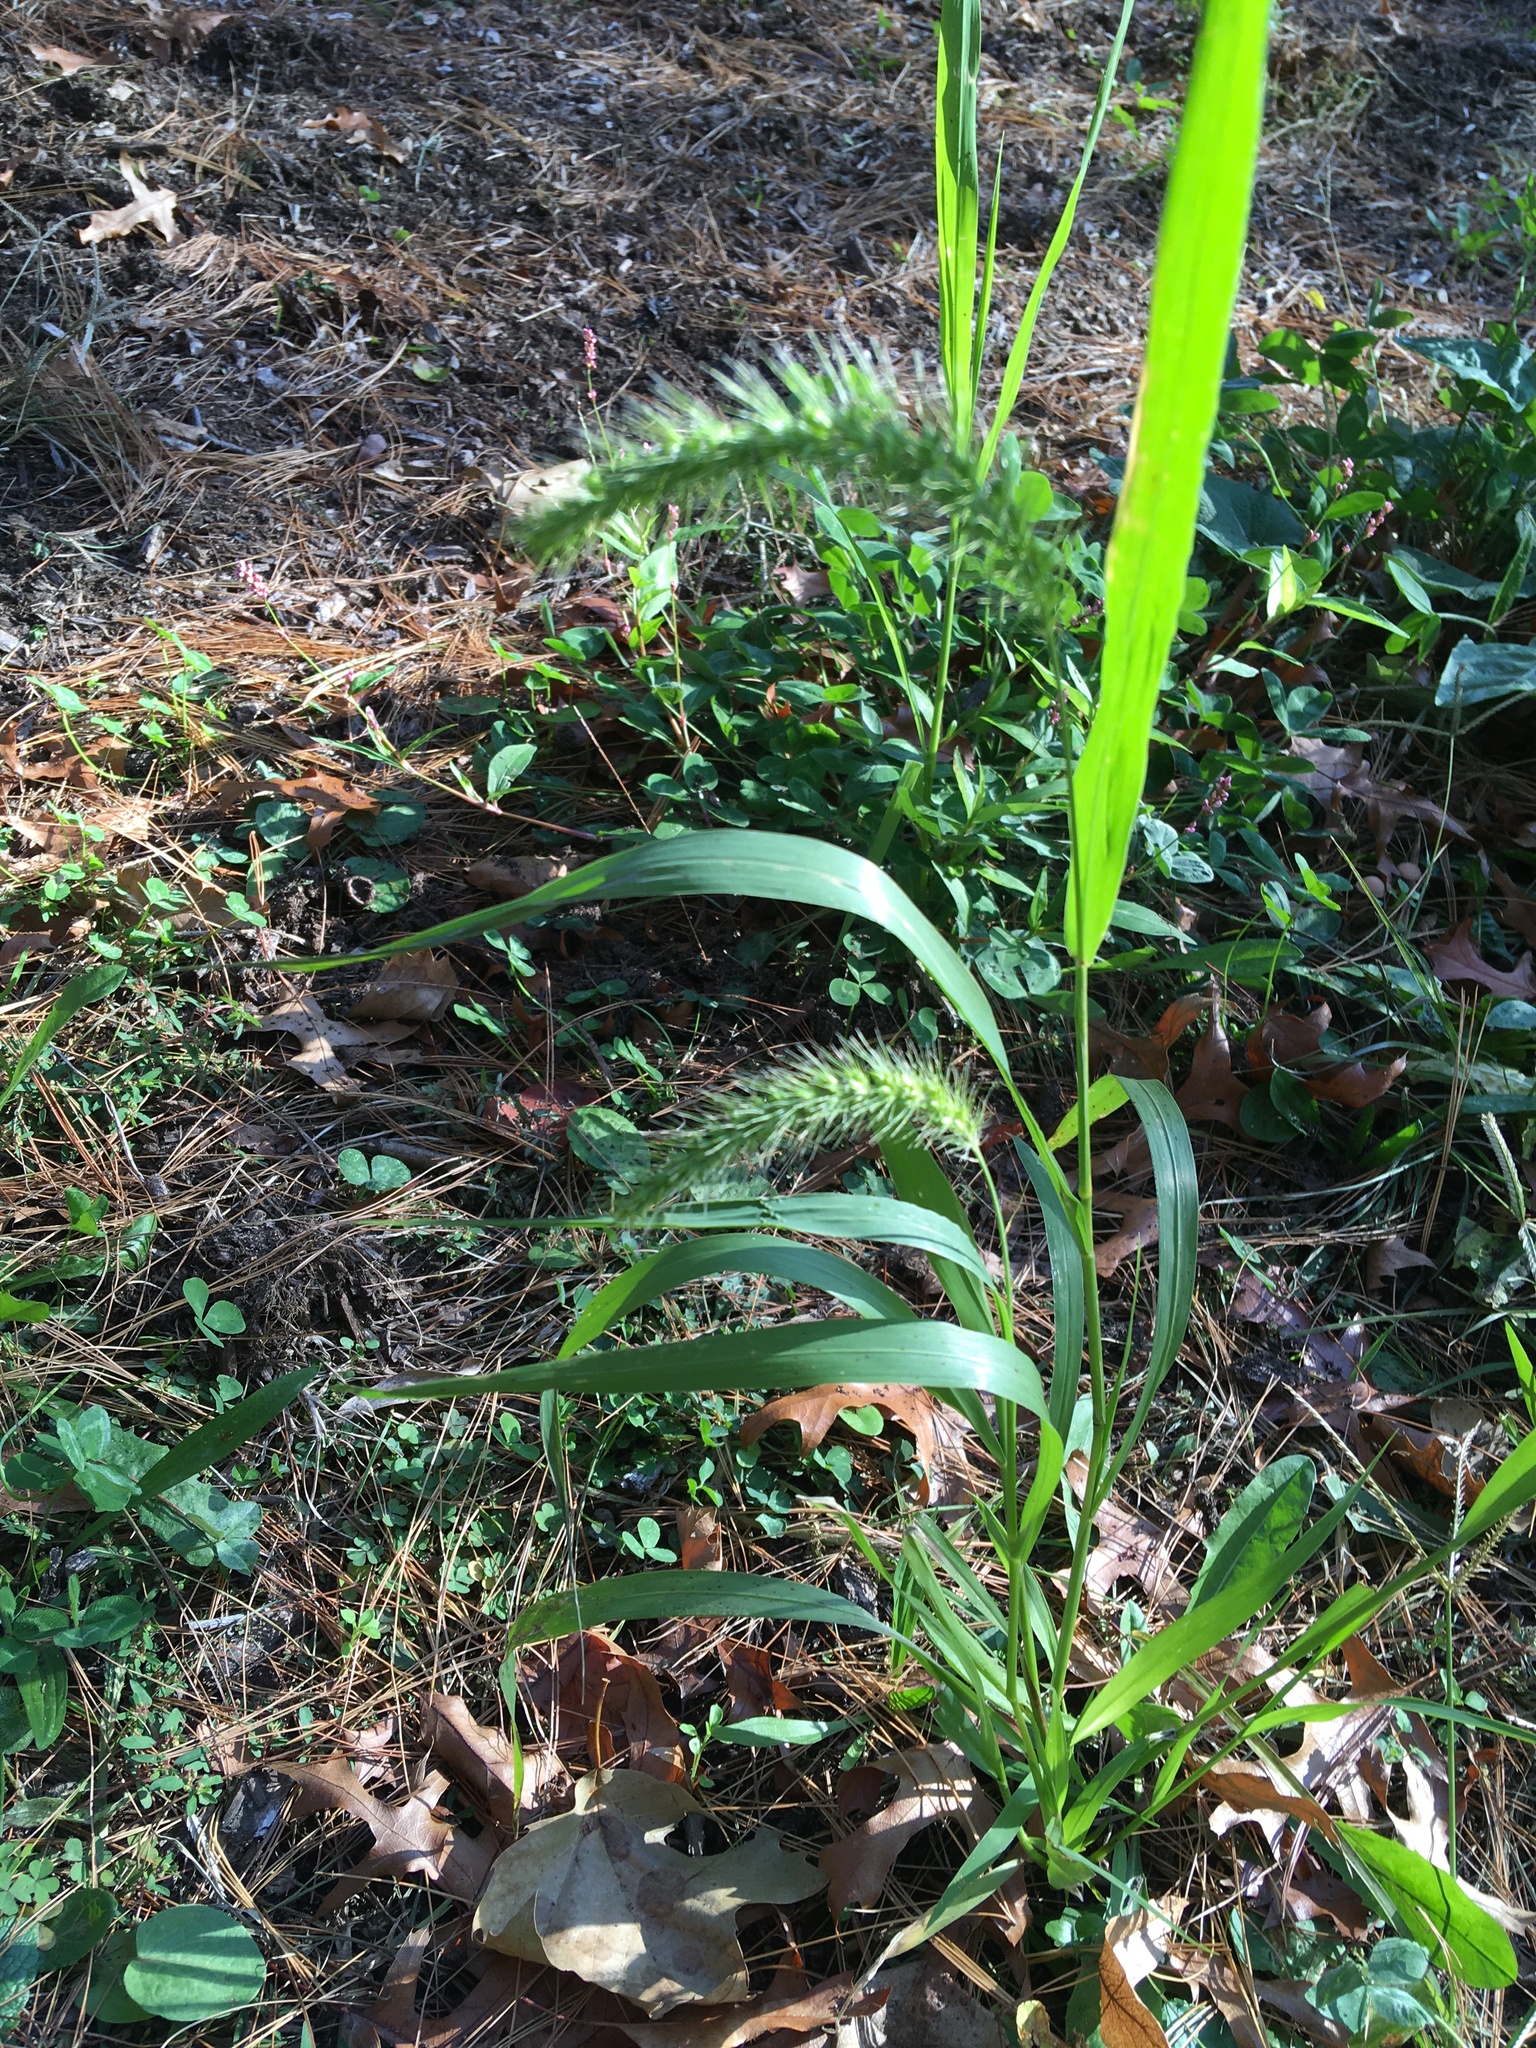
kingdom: Plantae
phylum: Tracheophyta
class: Liliopsida
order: Poales
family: Poaceae
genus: Setaria
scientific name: Setaria viridis
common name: Green bristlegrass
